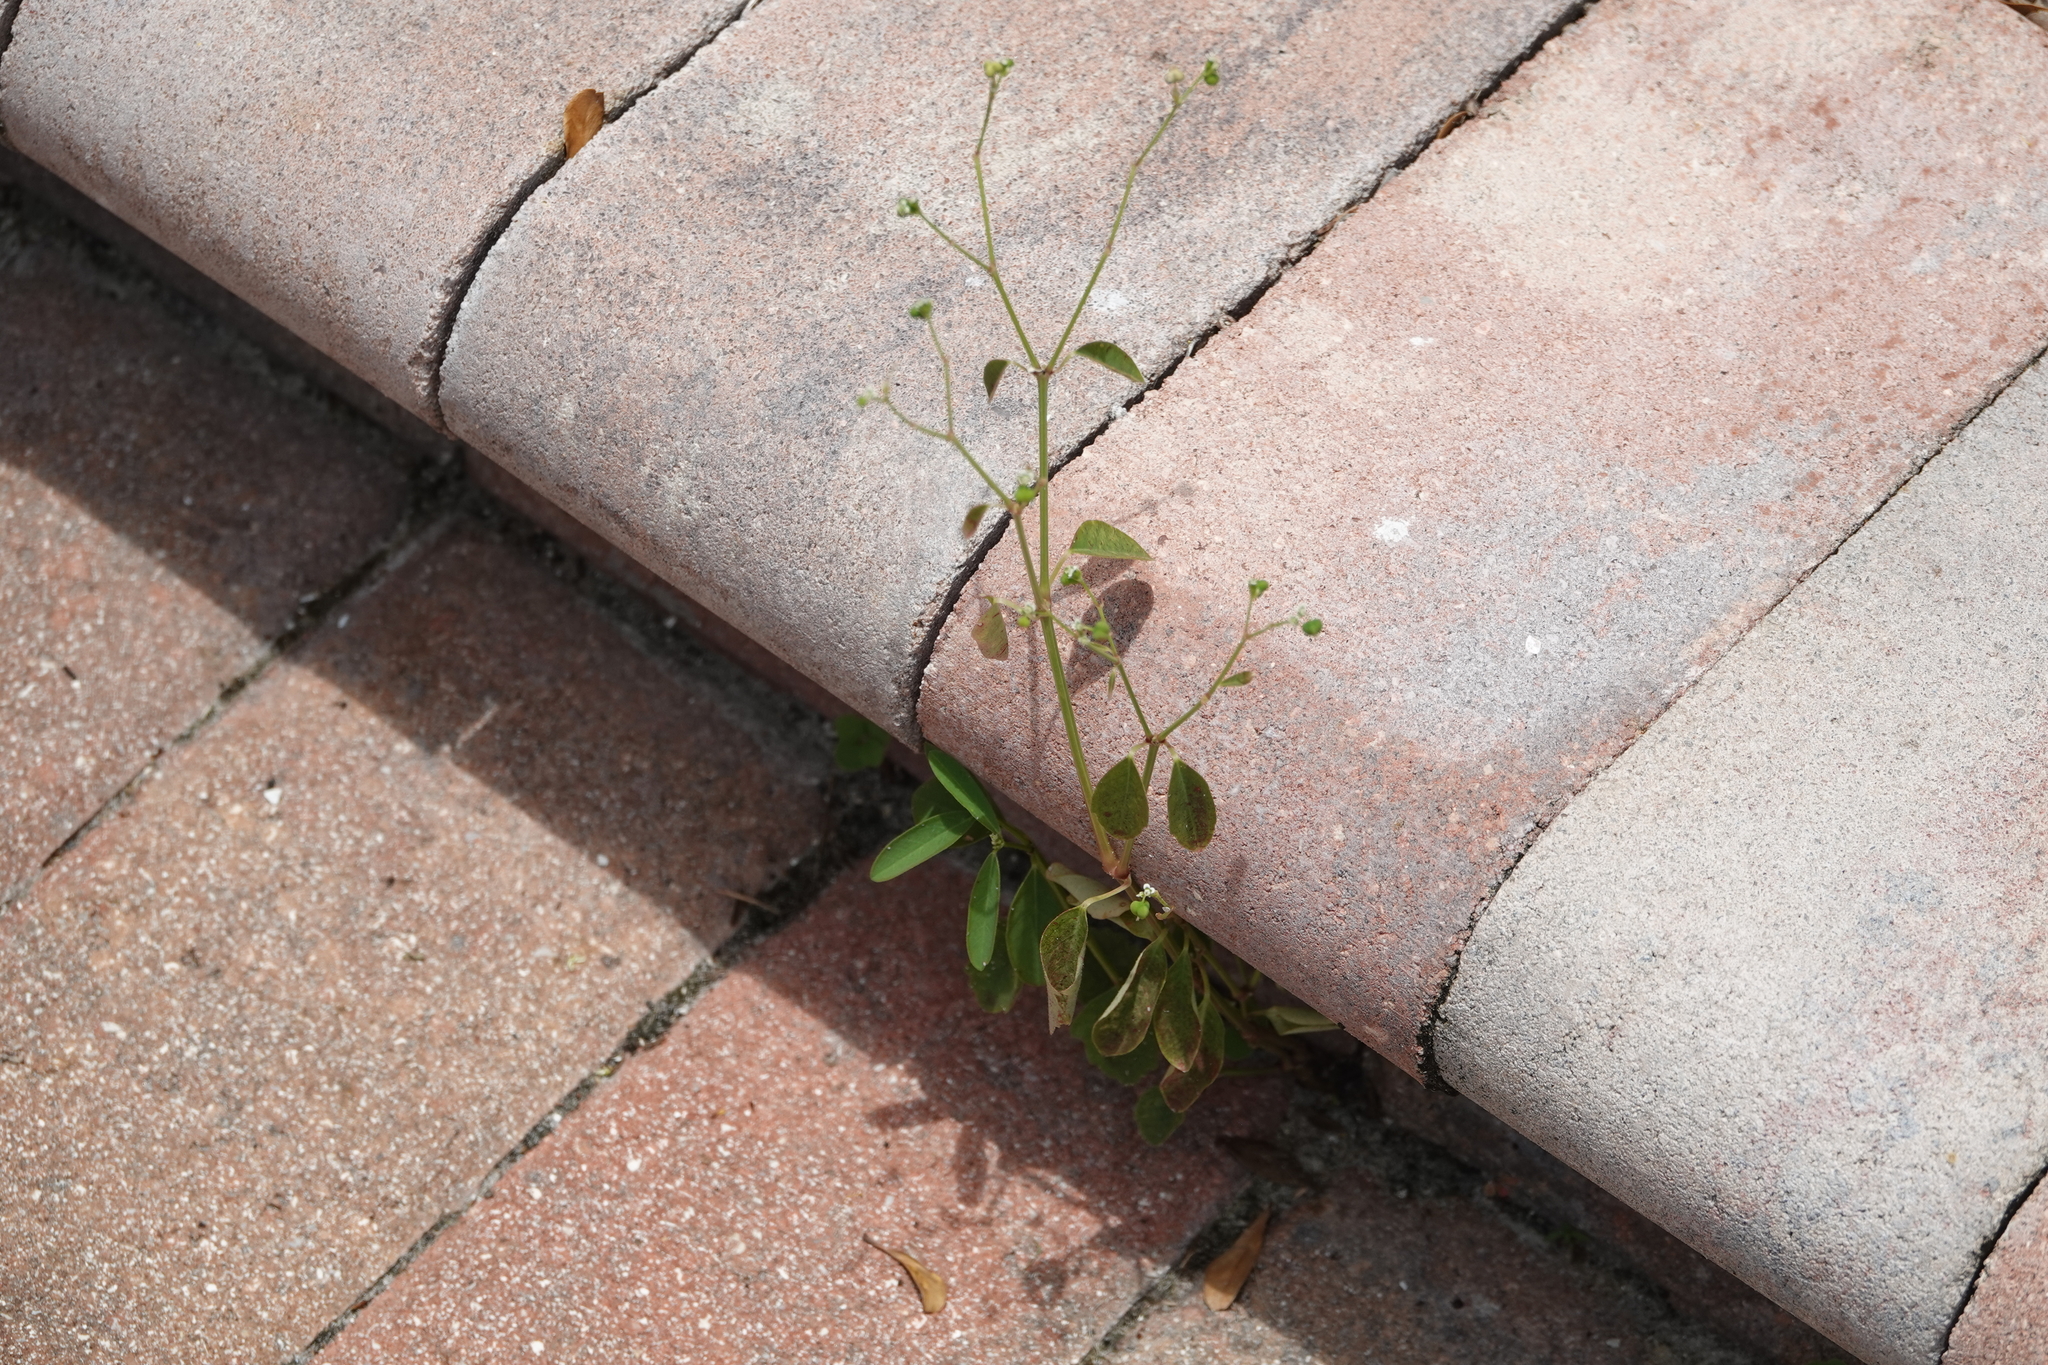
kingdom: Plantae
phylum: Tracheophyta
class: Magnoliopsida
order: Malpighiales
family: Euphorbiaceae
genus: Euphorbia
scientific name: Euphorbia graminea
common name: Grassleaf spurge
